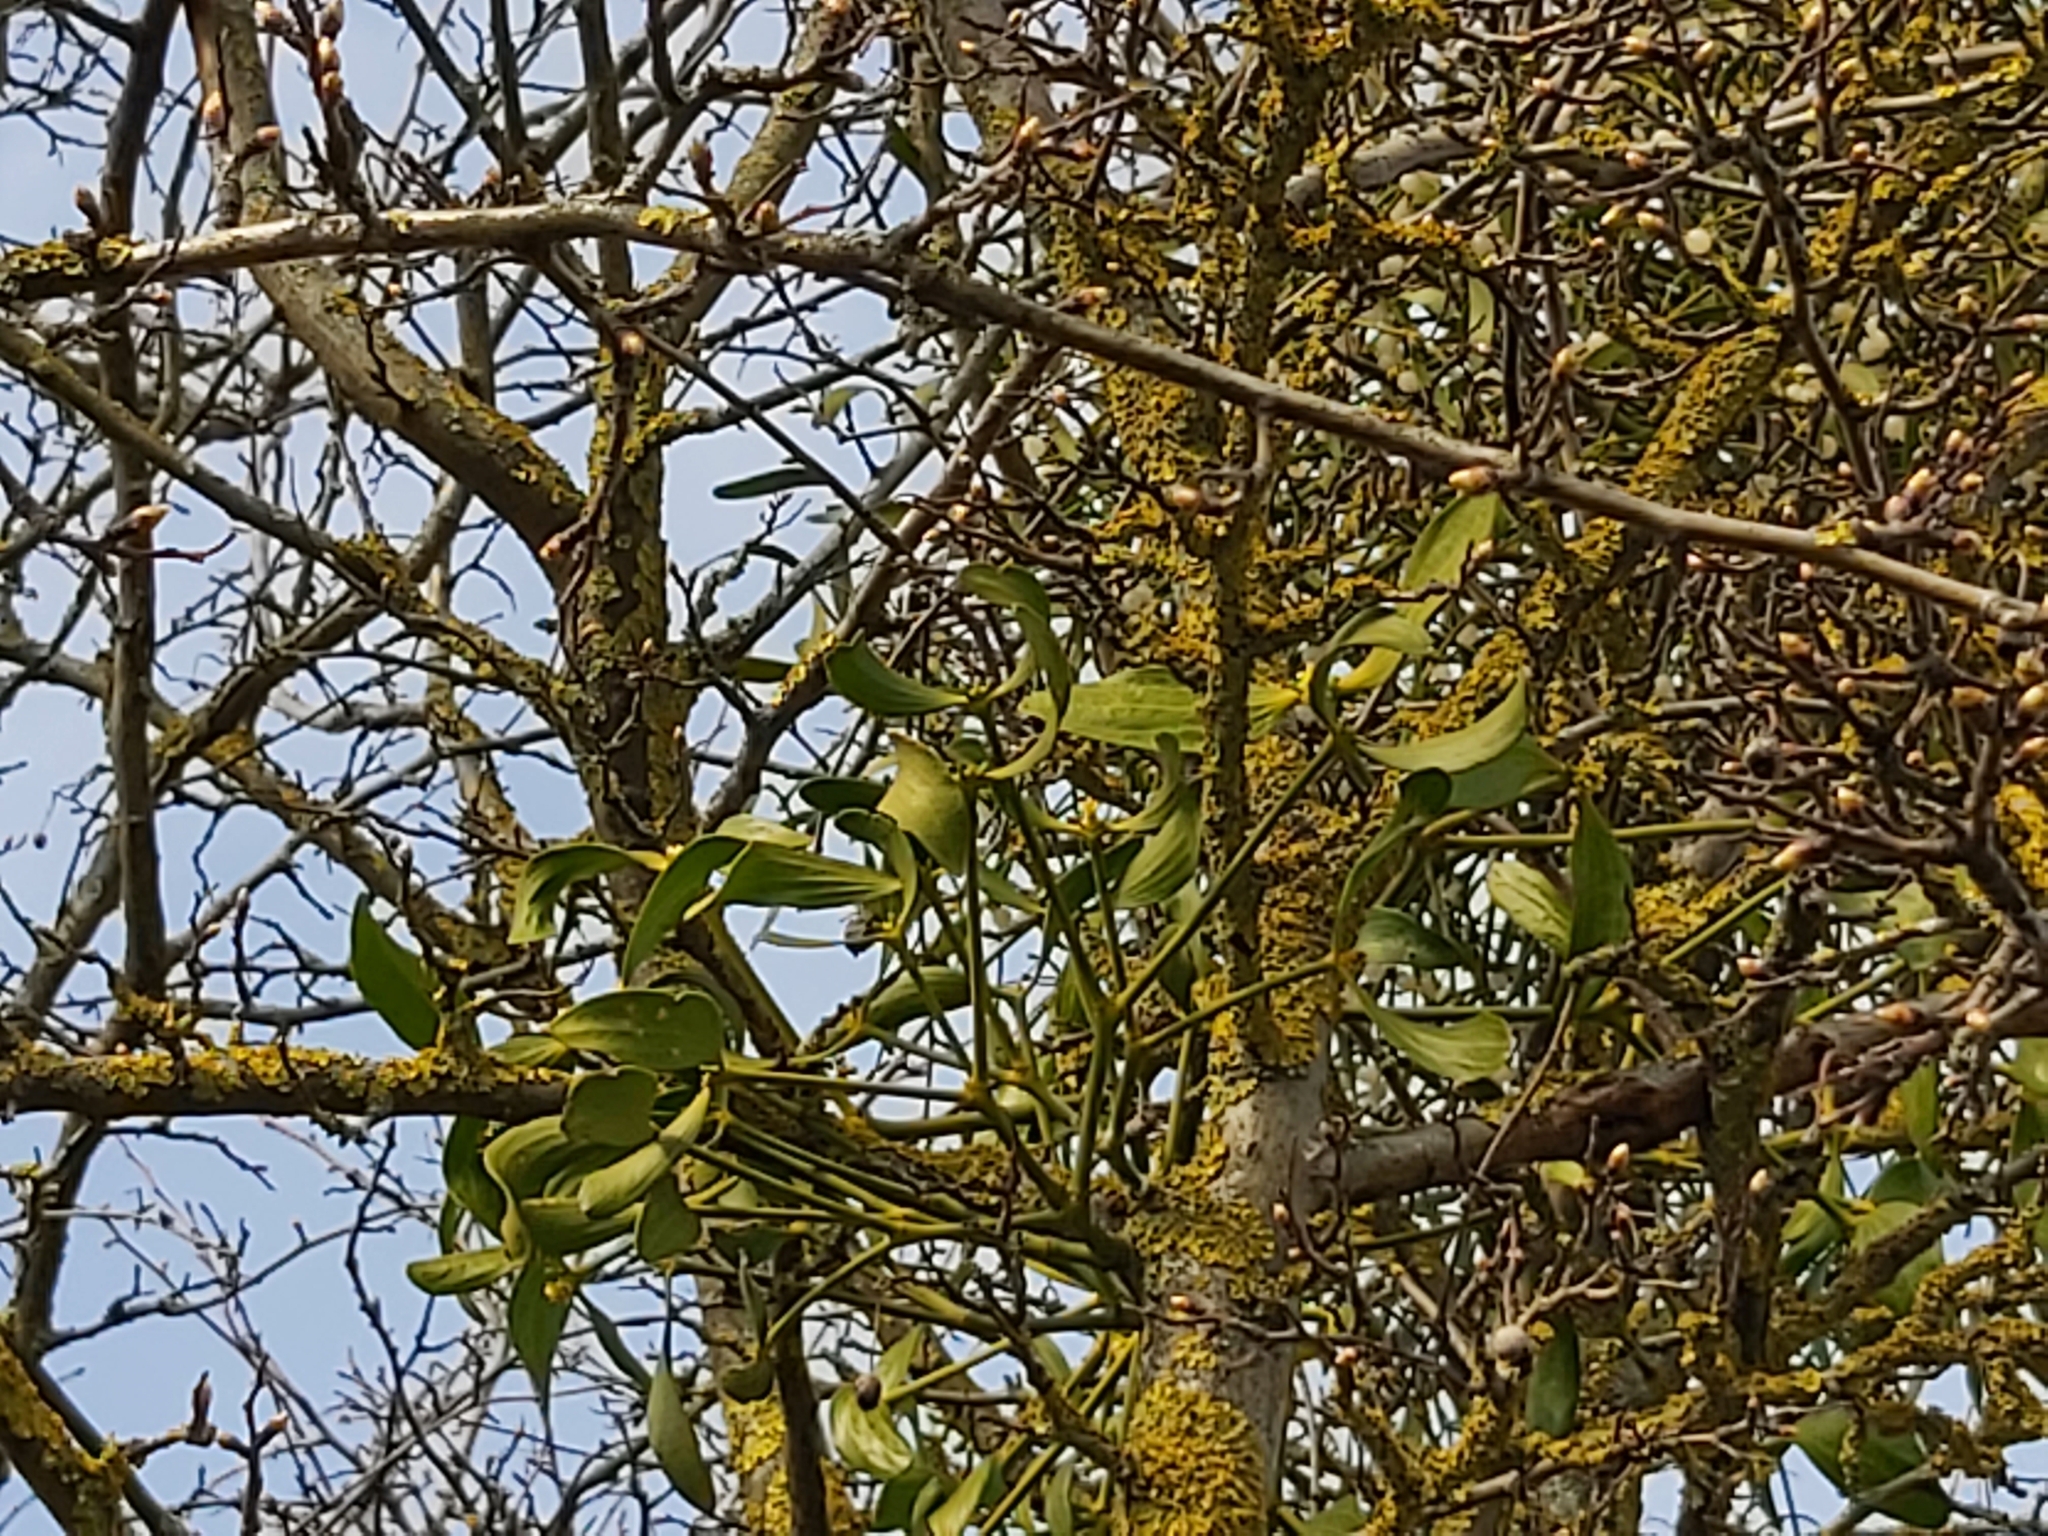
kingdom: Plantae
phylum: Tracheophyta
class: Magnoliopsida
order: Santalales
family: Viscaceae
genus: Viscum
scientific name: Viscum album
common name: Mistletoe
